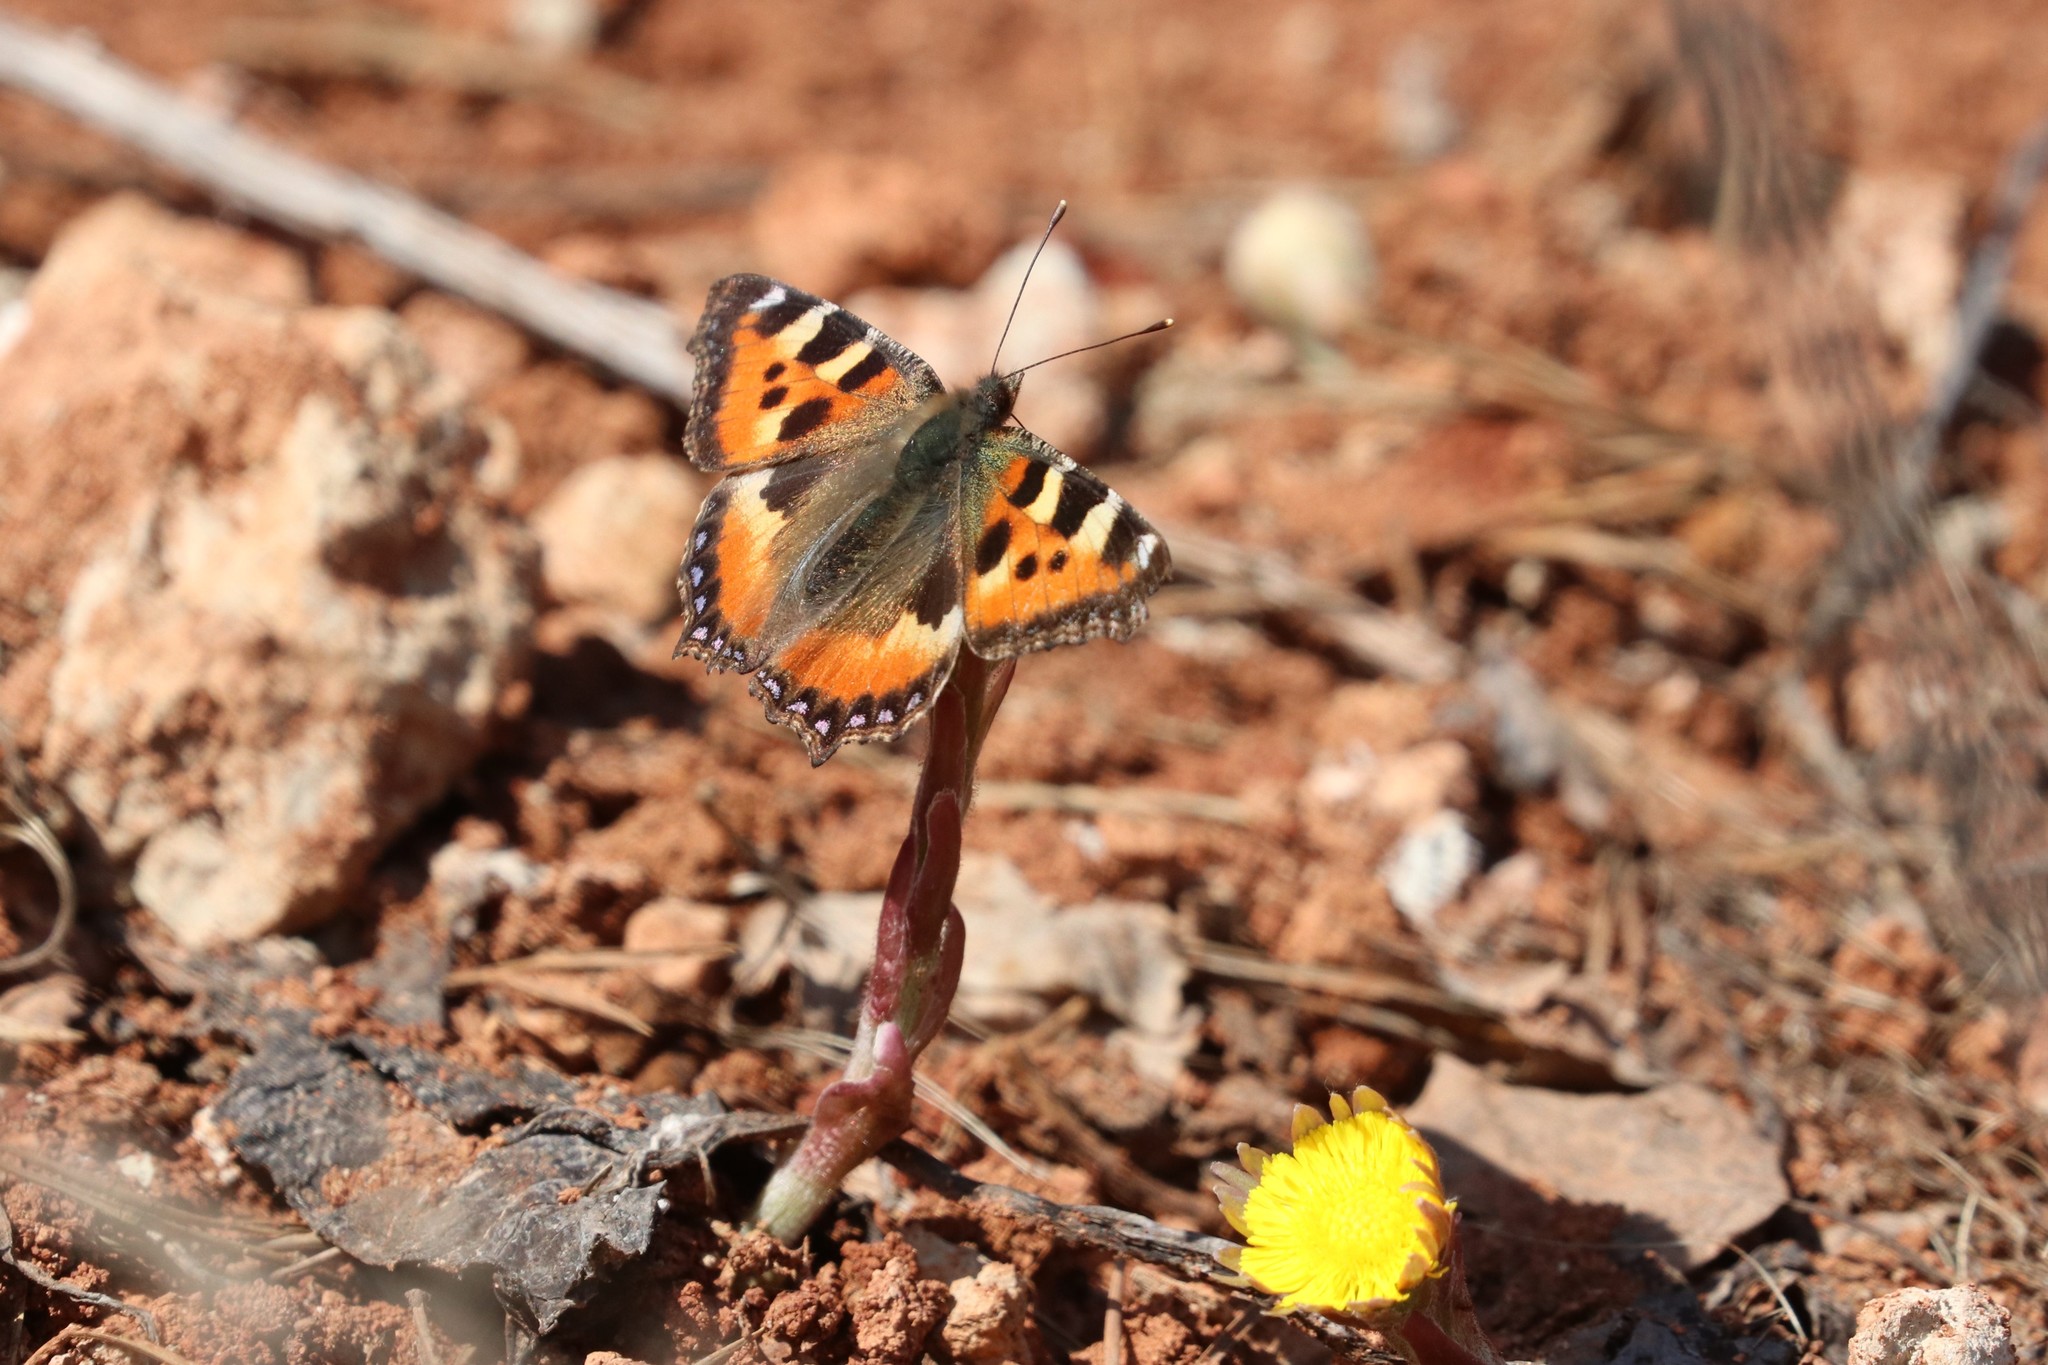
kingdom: Animalia
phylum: Arthropoda
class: Insecta
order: Lepidoptera
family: Nymphalidae
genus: Aglais
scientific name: Aglais urticae
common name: Small tortoiseshell
